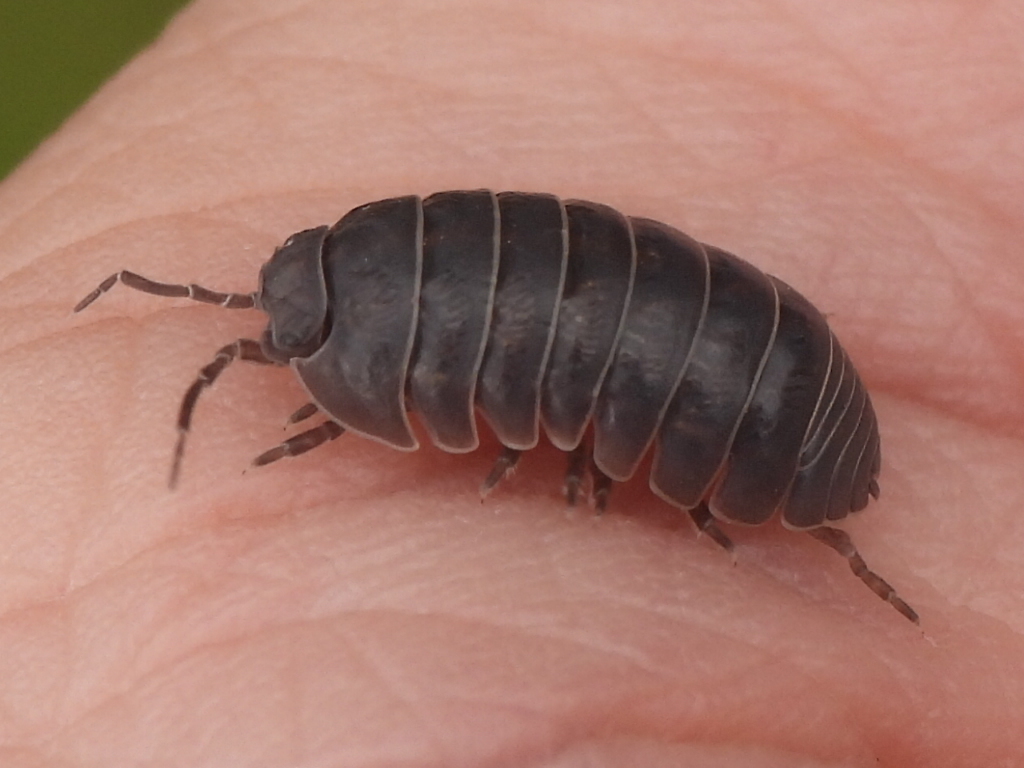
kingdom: Animalia
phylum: Arthropoda
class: Malacostraca
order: Isopoda
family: Armadillidiidae
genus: Armadillidium
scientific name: Armadillidium vulgare
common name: Common pill woodlouse
